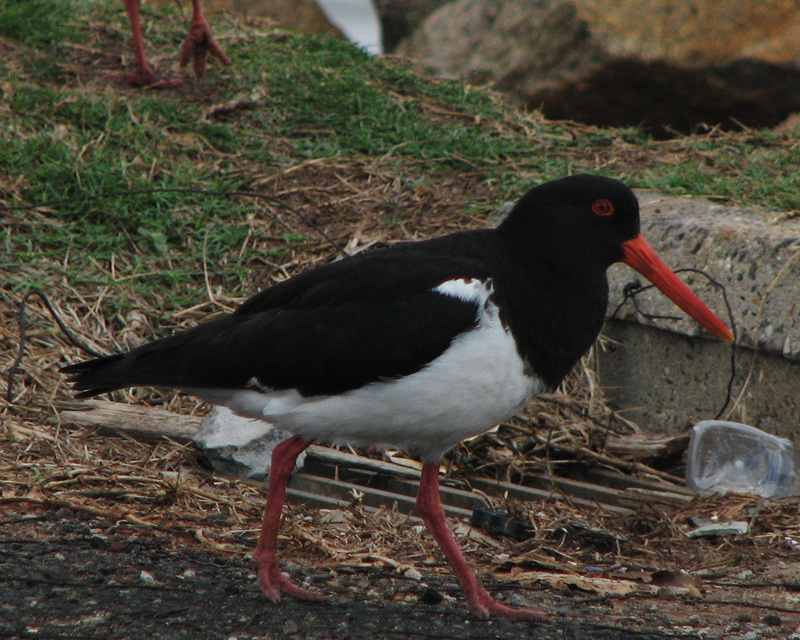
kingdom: Animalia
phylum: Chordata
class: Aves
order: Charadriiformes
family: Haematopodidae
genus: Haematopus
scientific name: Haematopus longirostris
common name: Pied oystercatcher
